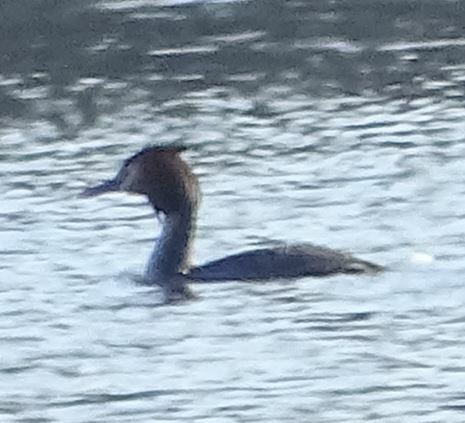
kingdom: Animalia
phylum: Chordata
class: Aves
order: Podicipediformes
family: Podicipedidae
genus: Podiceps
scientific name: Podiceps cristatus
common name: Great crested grebe
